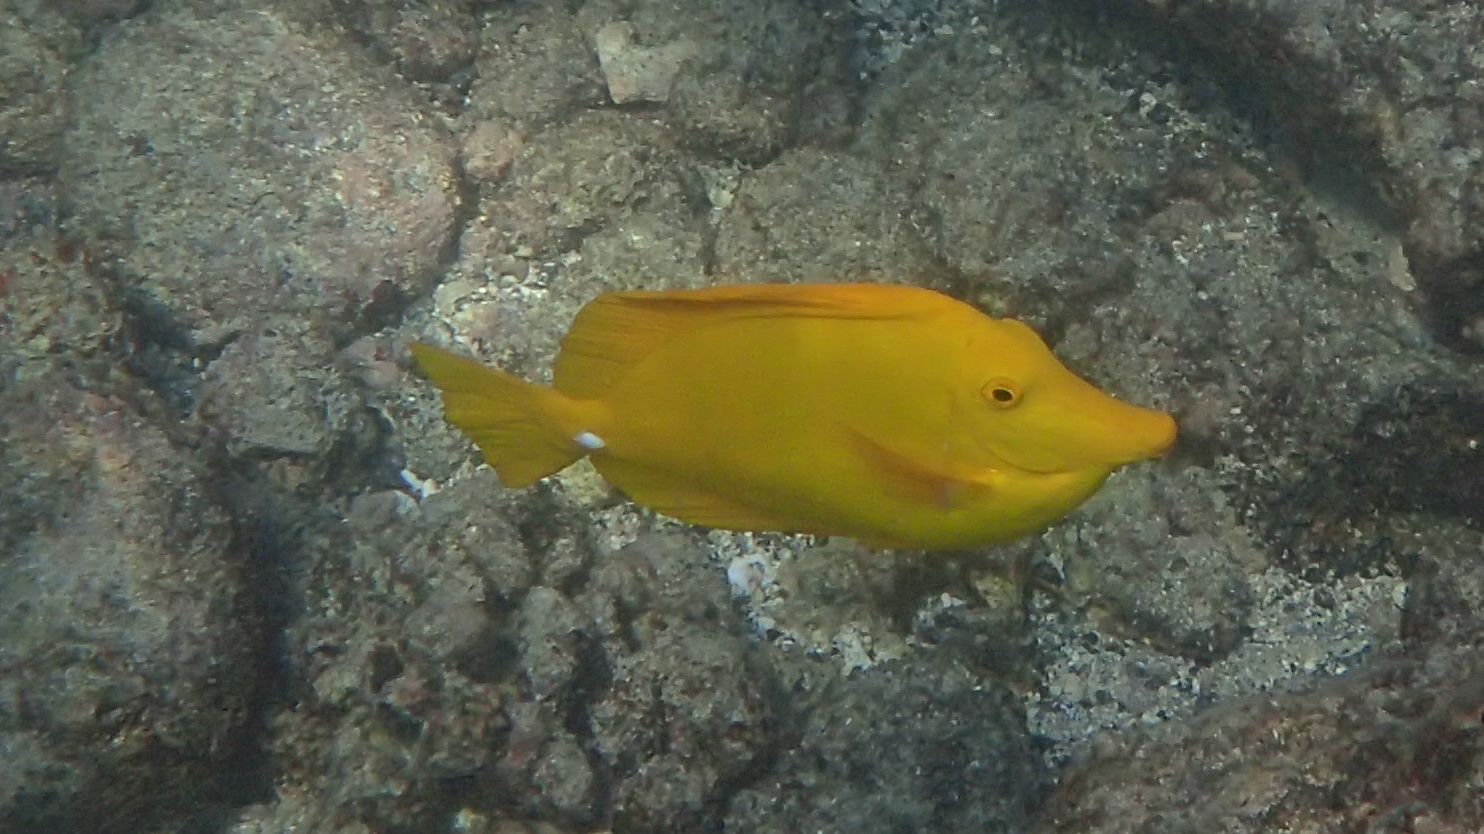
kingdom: Animalia
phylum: Chordata
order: Perciformes
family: Acanthuridae
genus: Zebrasoma
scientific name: Zebrasoma flavescens
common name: Yellow tang
